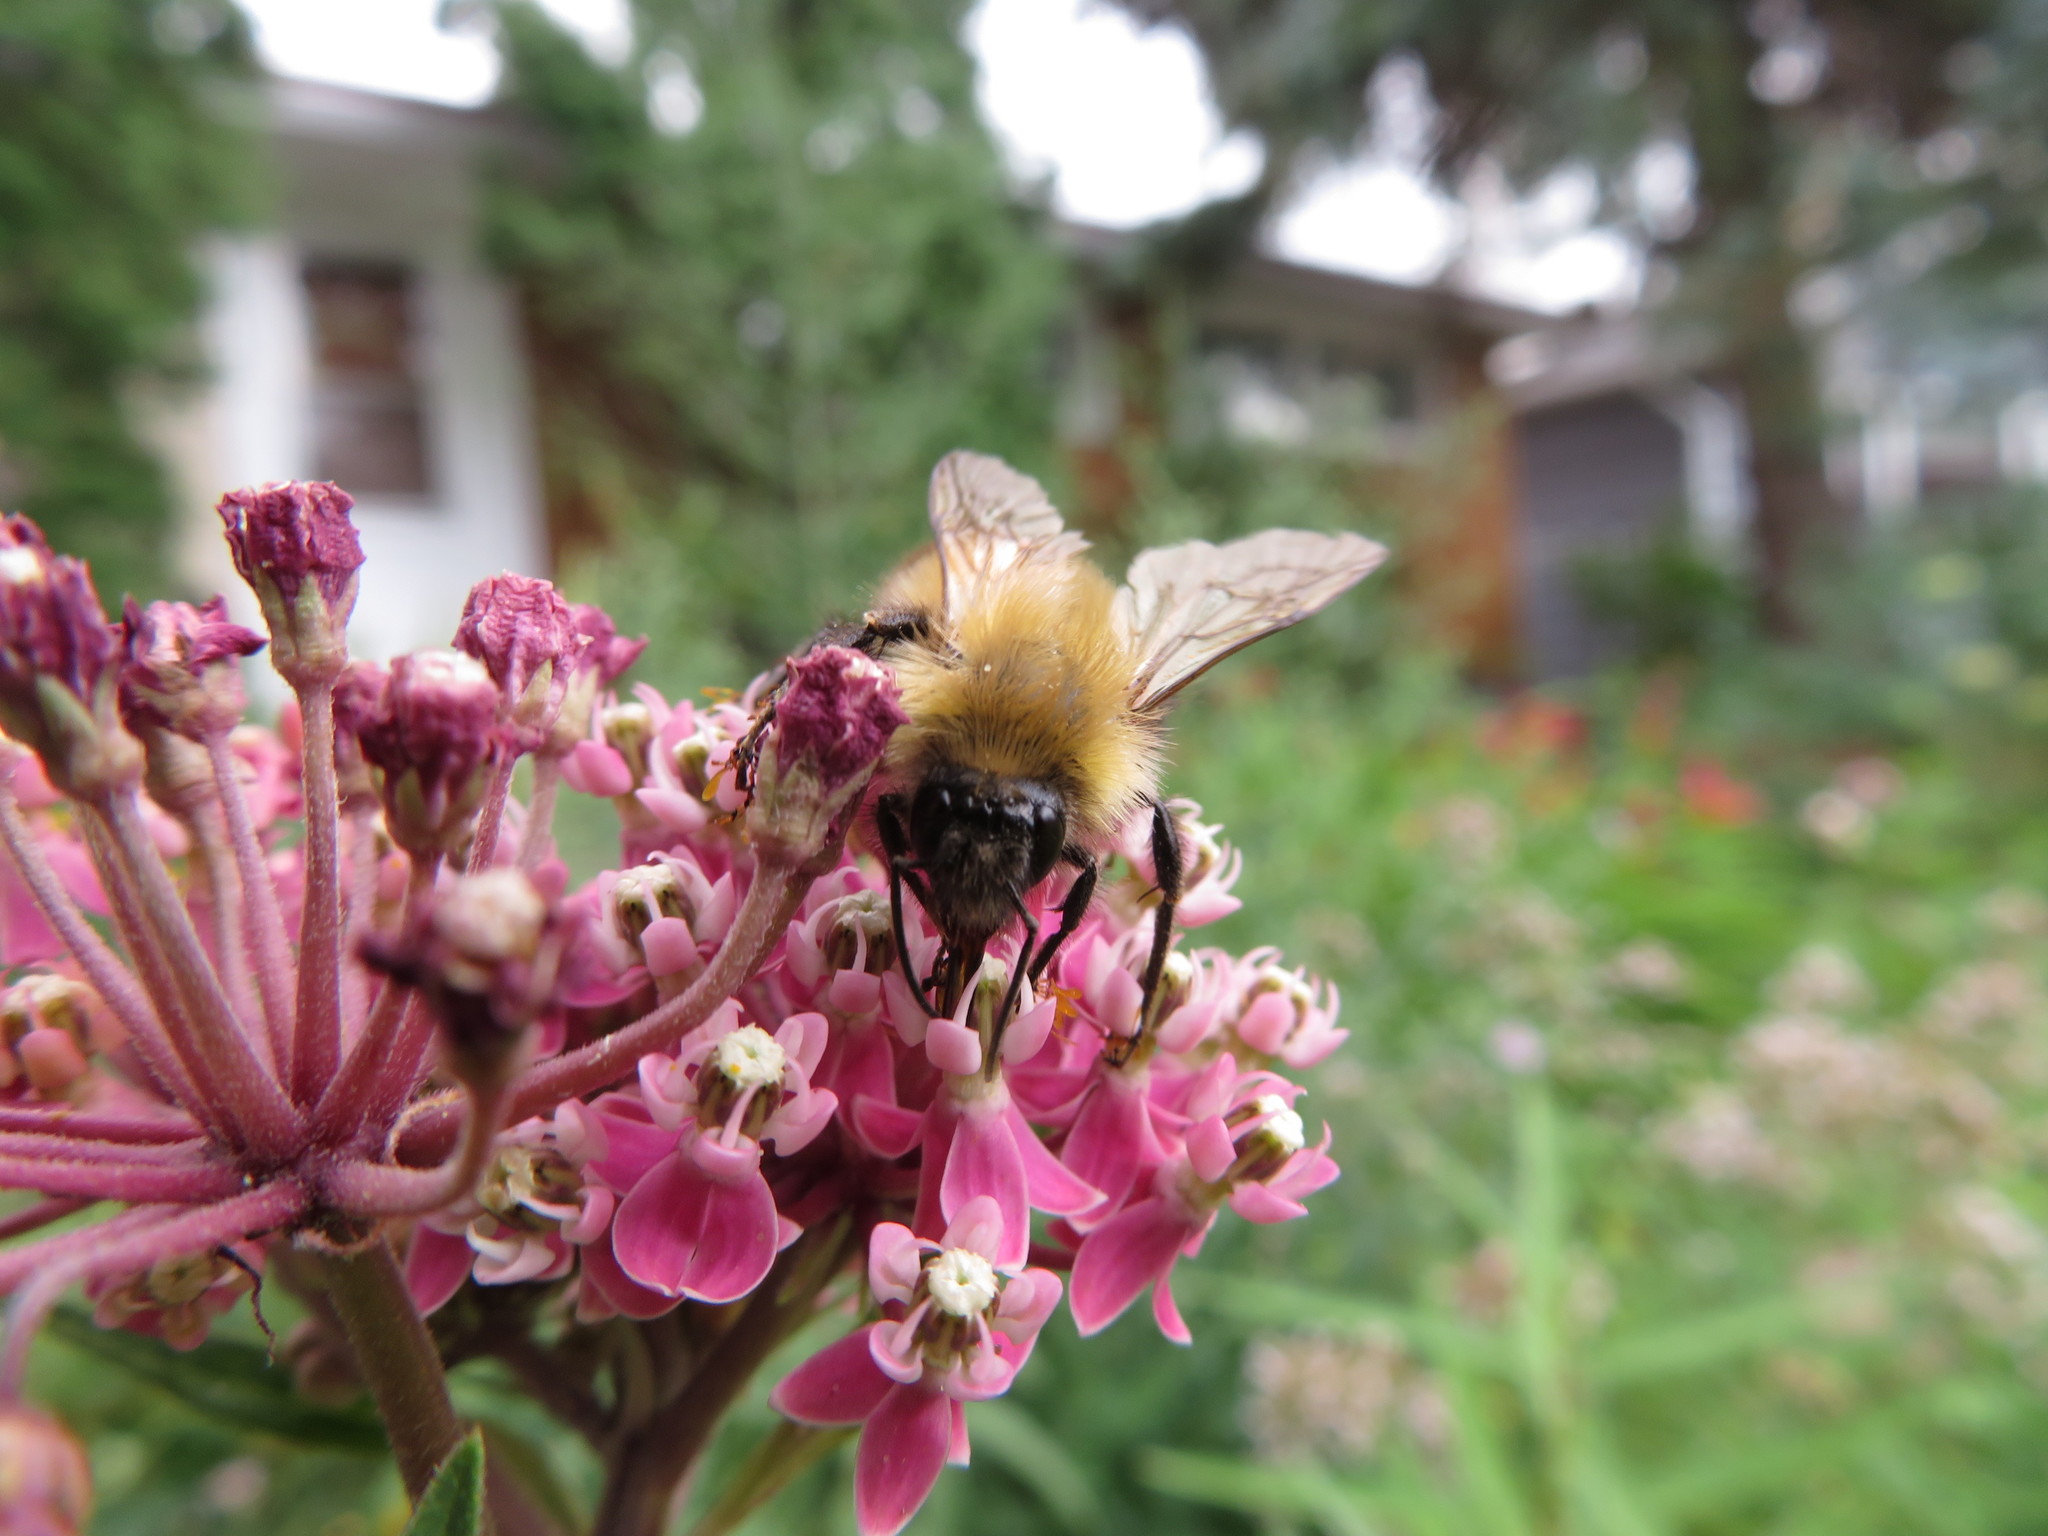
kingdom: Animalia
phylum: Arthropoda
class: Insecta
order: Hymenoptera
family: Apidae
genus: Bombus
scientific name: Bombus perplexus
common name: Confusing bumble bee
